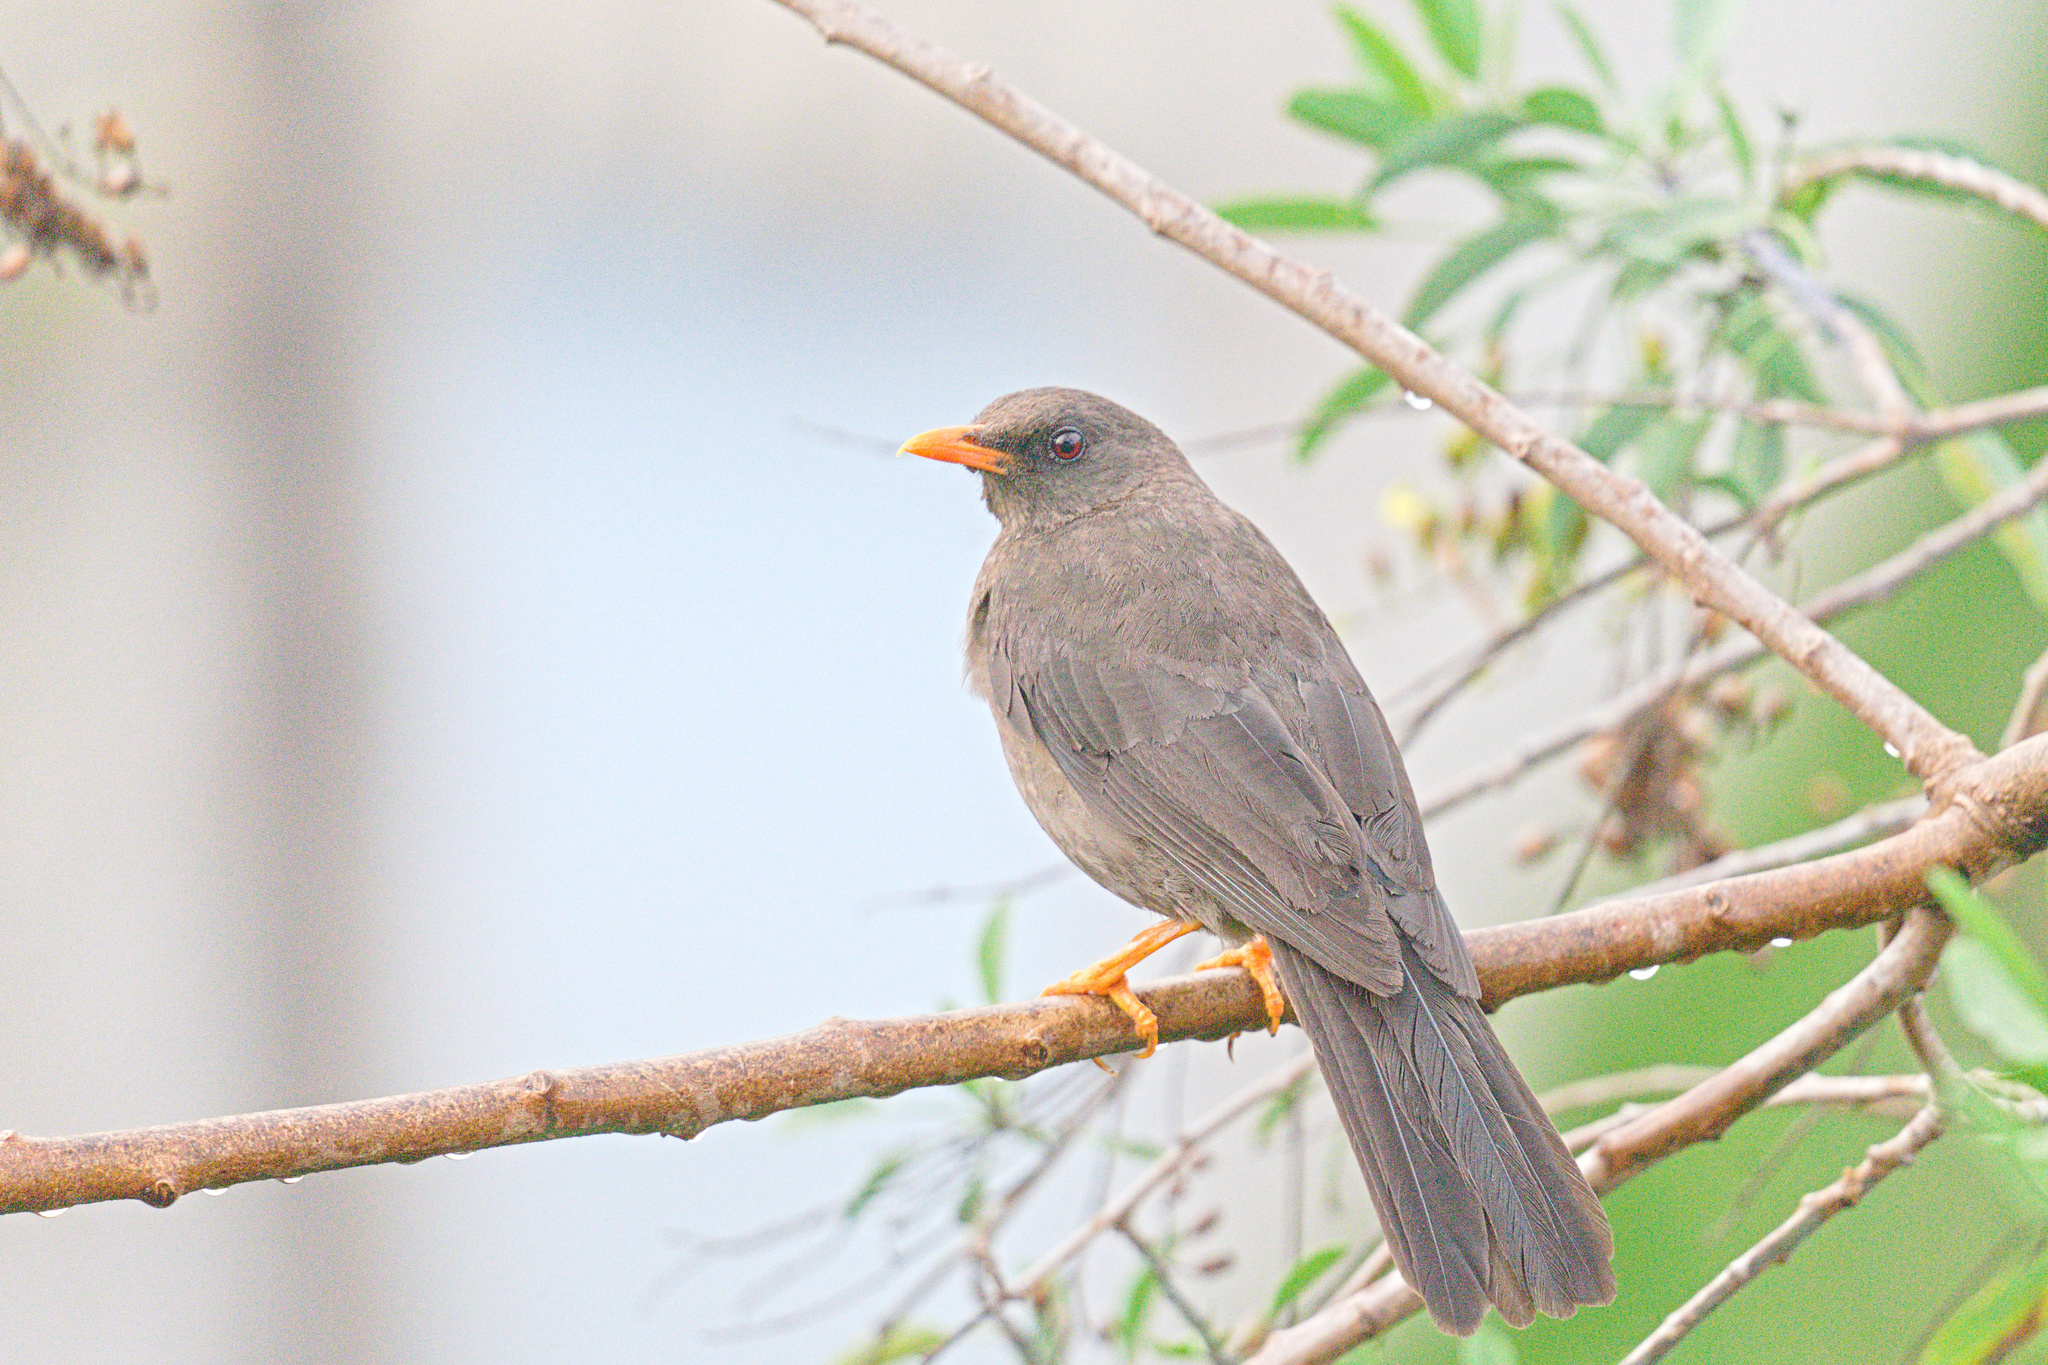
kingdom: Animalia
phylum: Chordata
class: Aves
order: Passeriformes
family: Turdidae
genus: Turdus
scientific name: Turdus fuscater
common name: Great thrush
